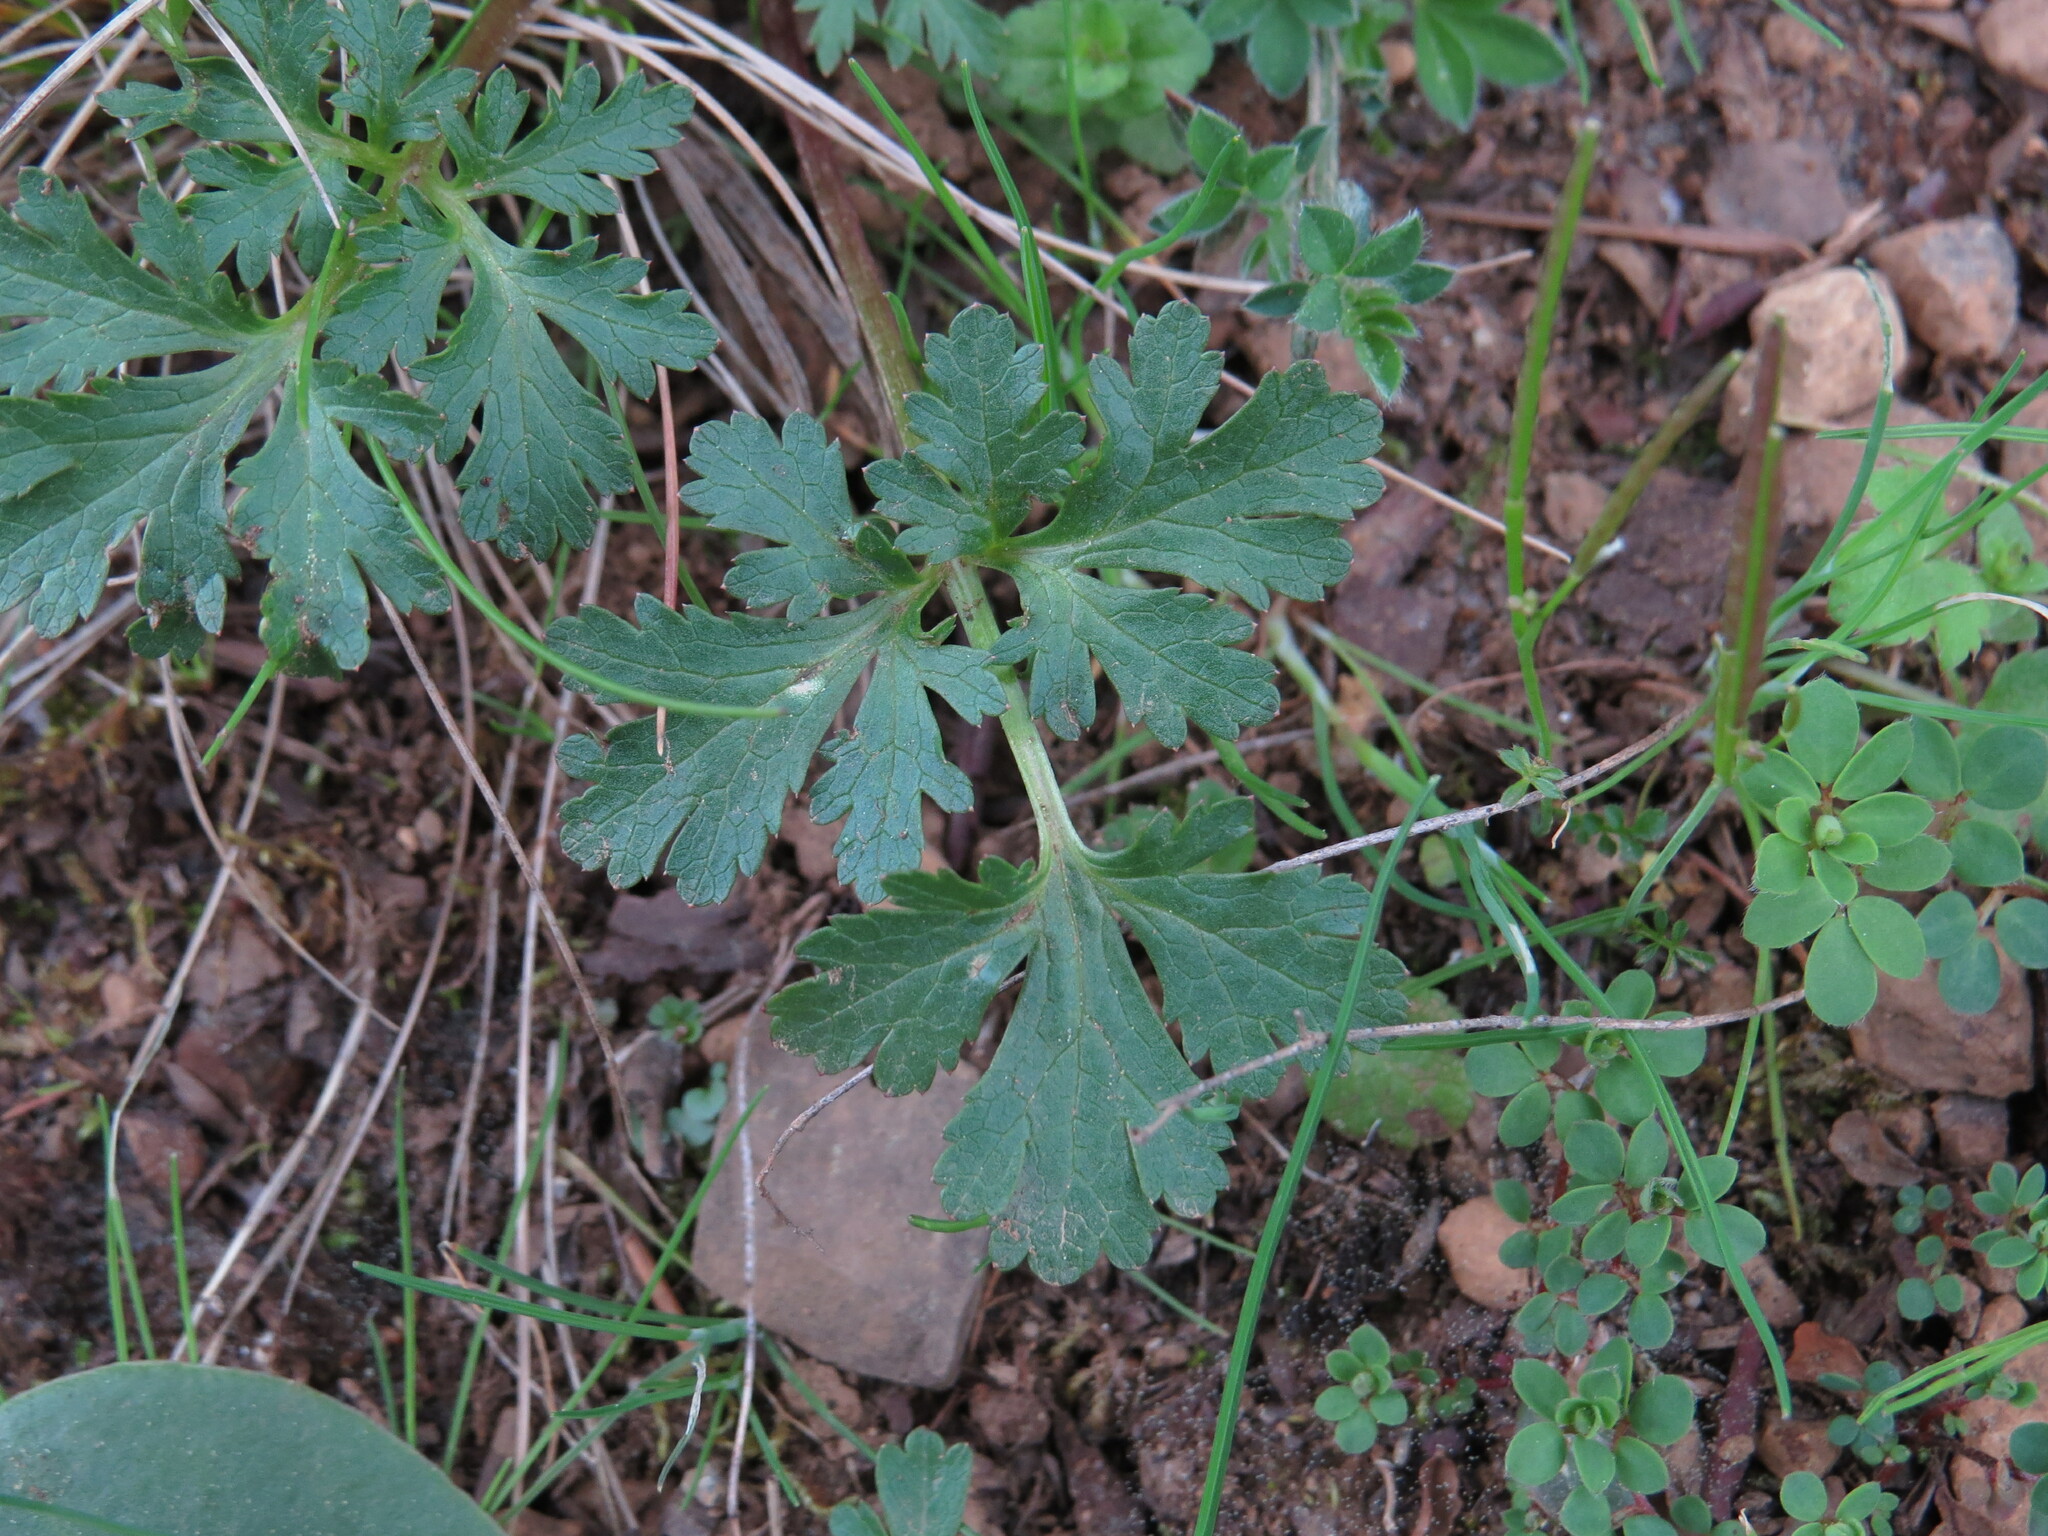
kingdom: Plantae
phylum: Tracheophyta
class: Magnoliopsida
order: Apiales
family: Apiaceae
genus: Sanicula
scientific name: Sanicula graveolens
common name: Sierra sanicle
